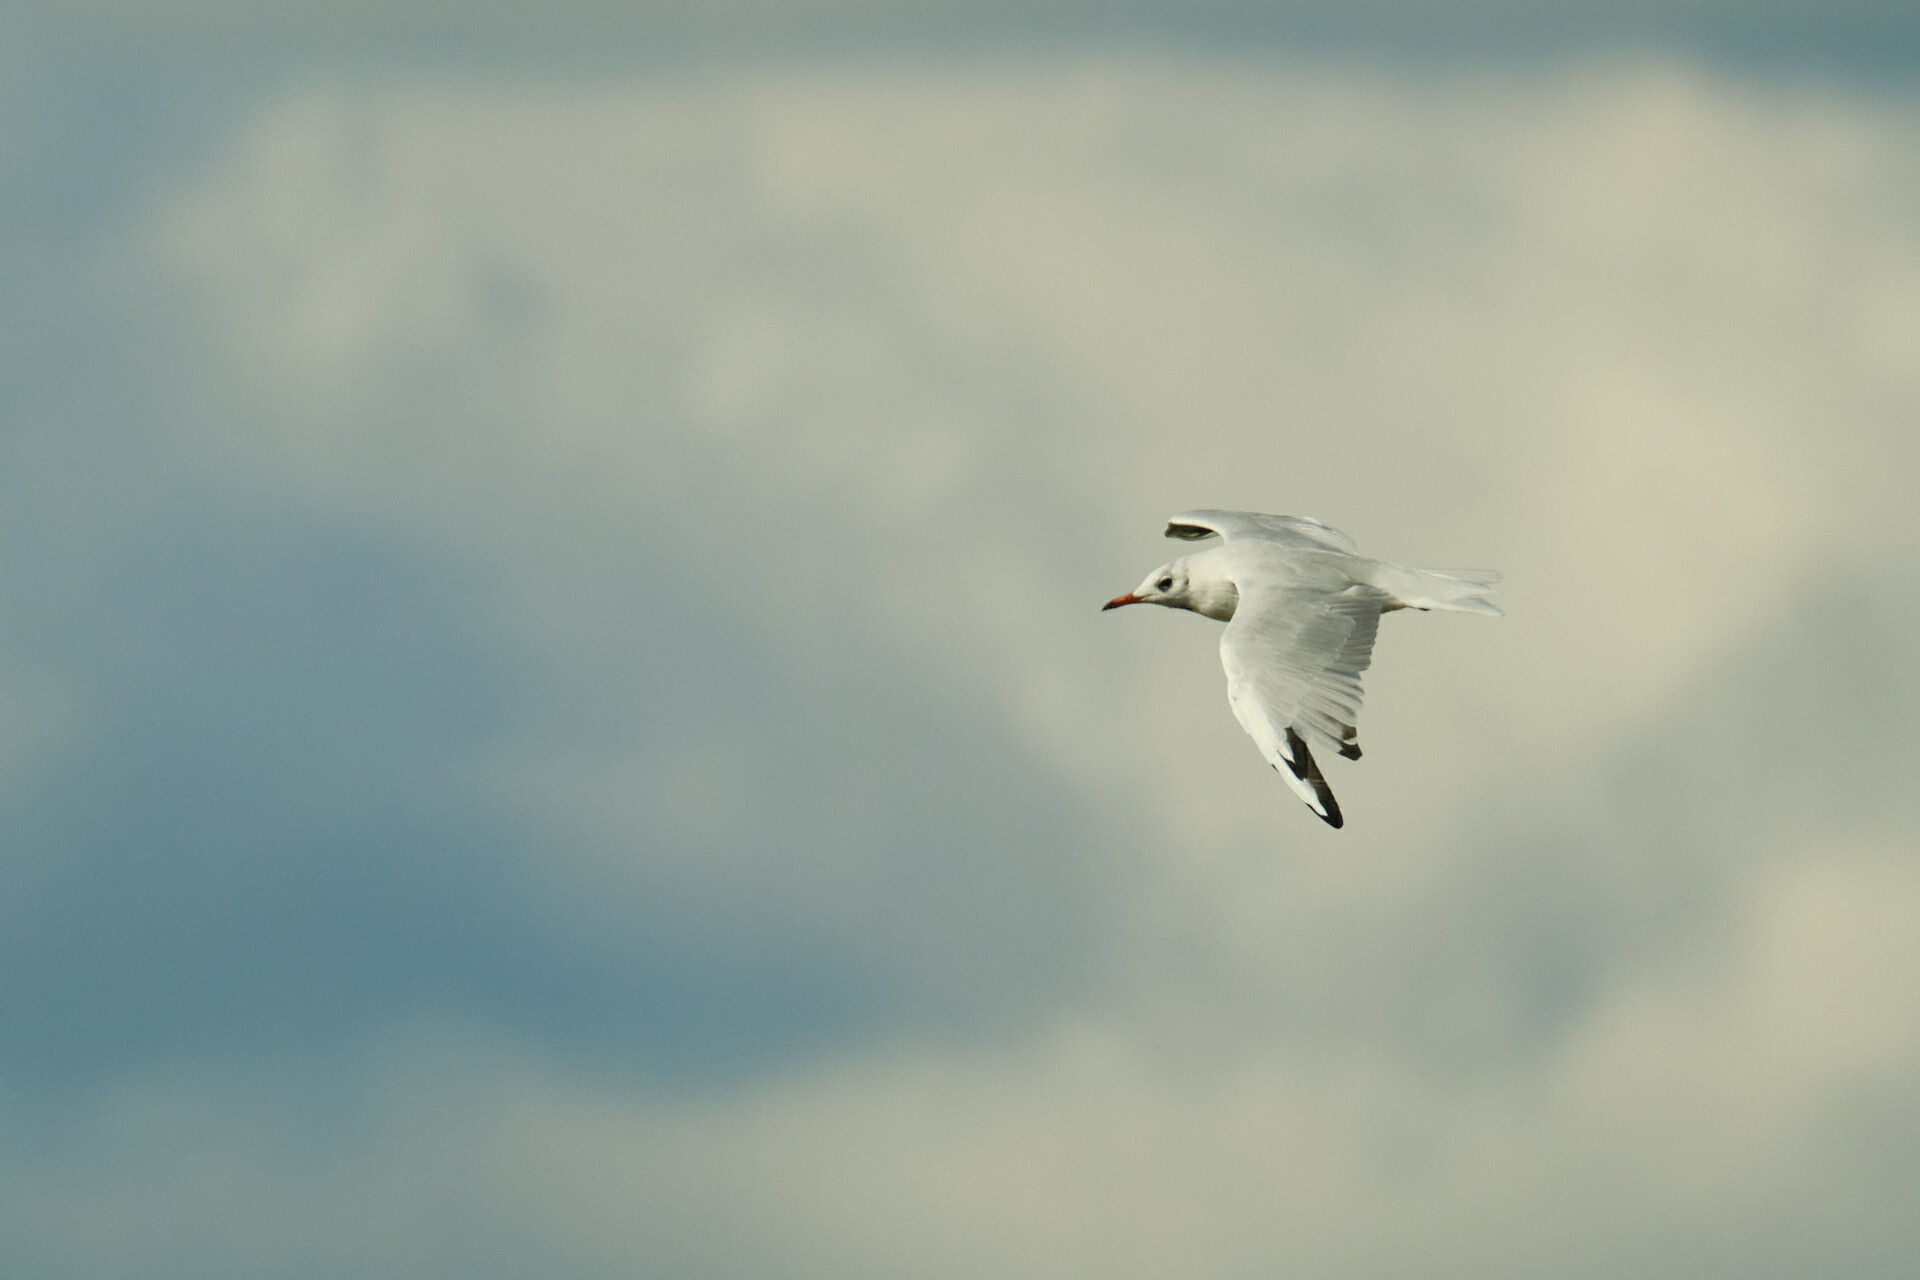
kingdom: Animalia
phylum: Chordata
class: Aves
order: Charadriiformes
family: Laridae
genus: Chroicocephalus
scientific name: Chroicocephalus ridibundus
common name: Black-headed gull
